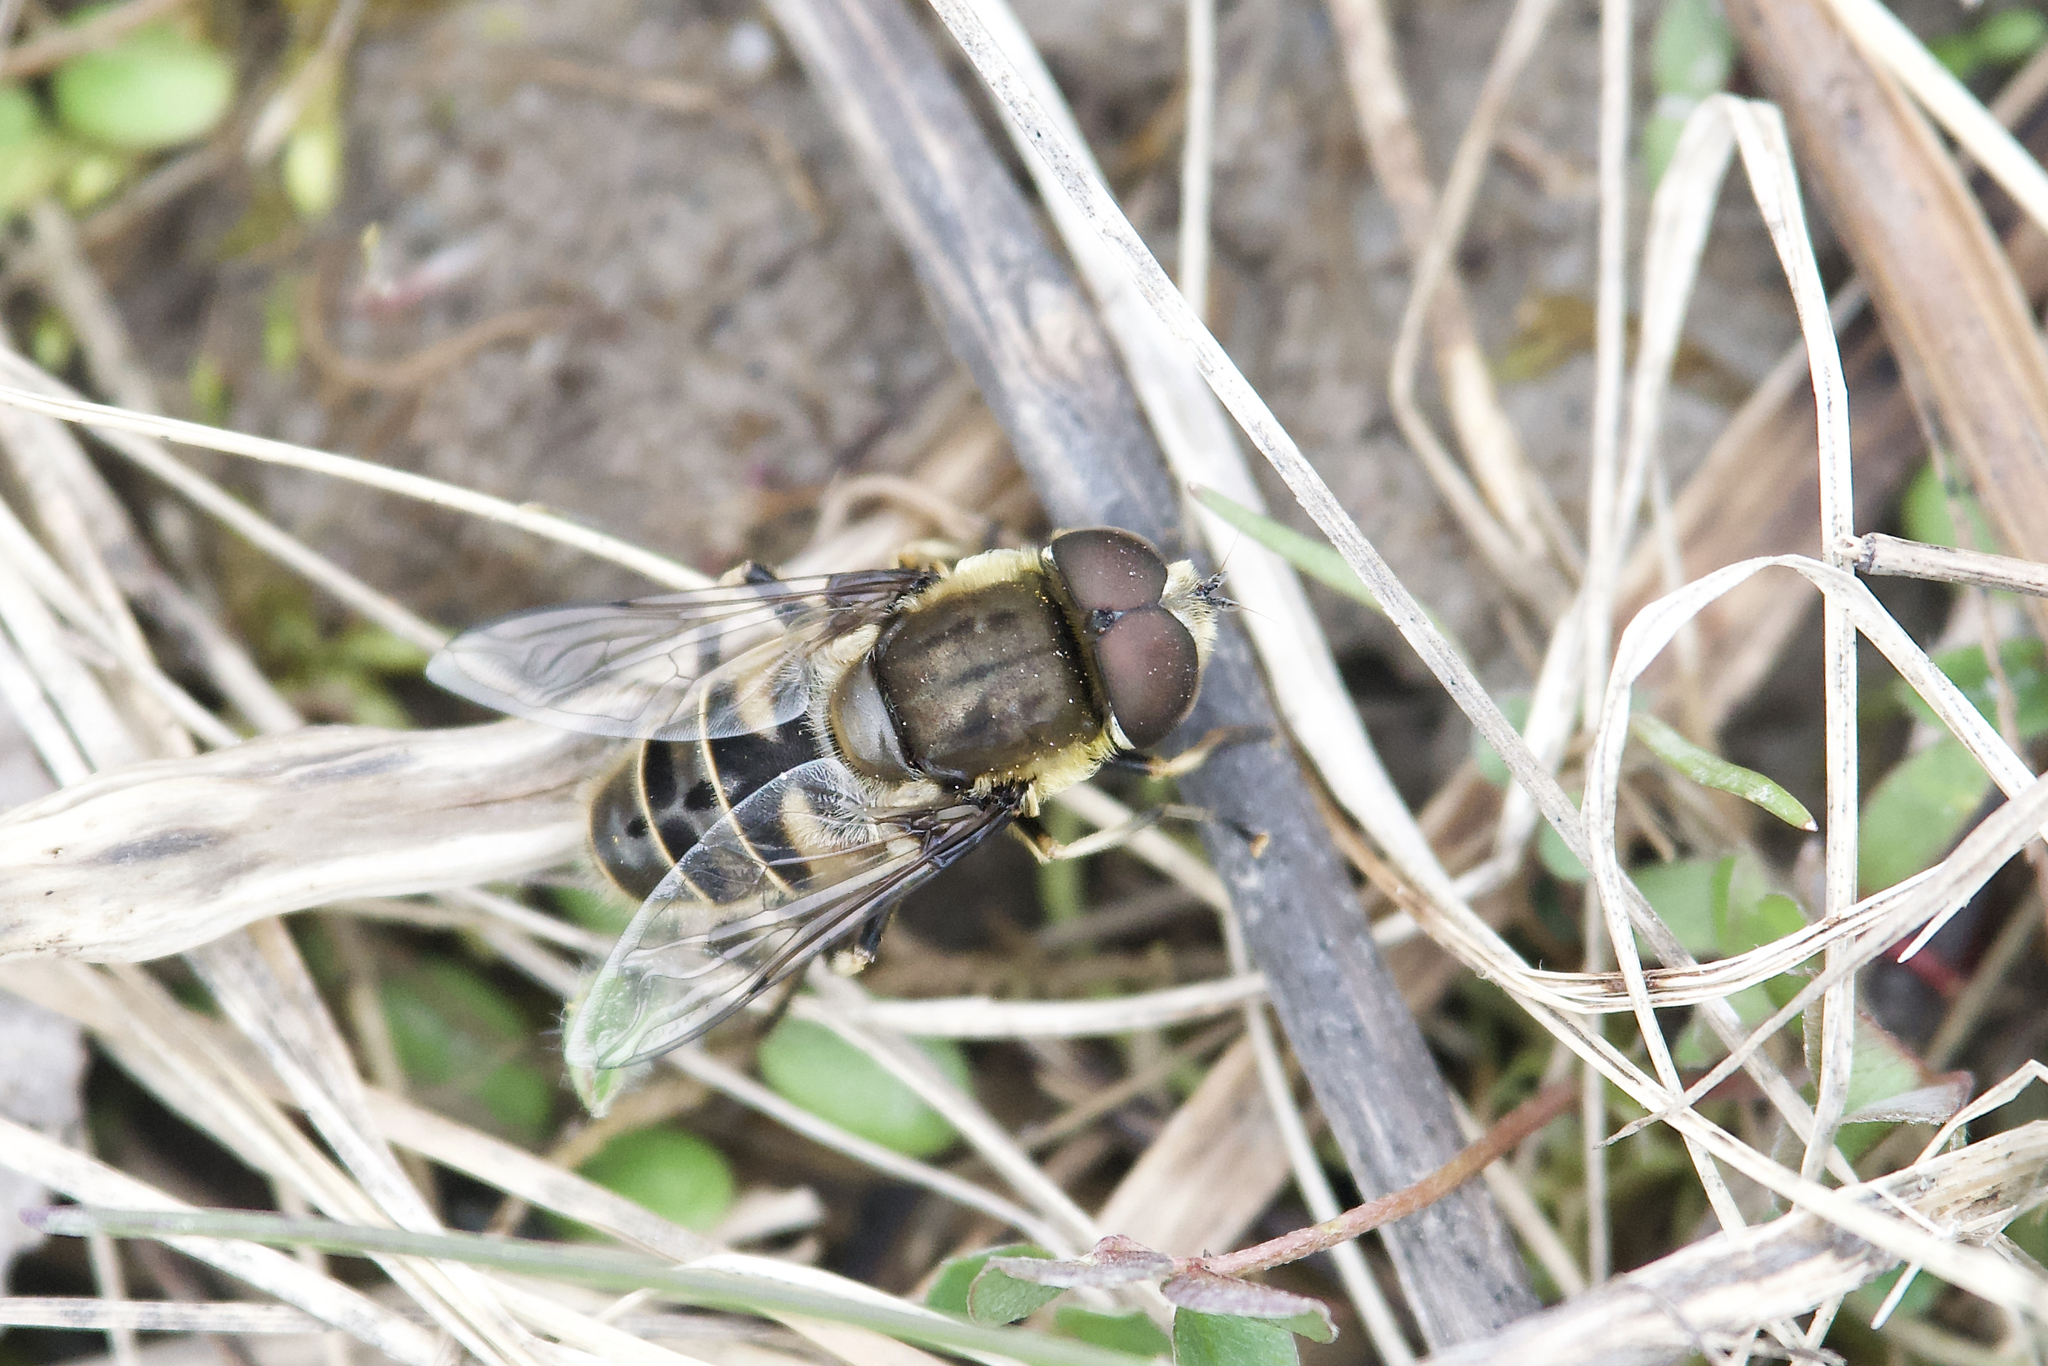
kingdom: Animalia
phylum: Arthropoda
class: Insecta
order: Diptera
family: Syrphidae
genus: Eristalis
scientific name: Eristalis dimidiata
